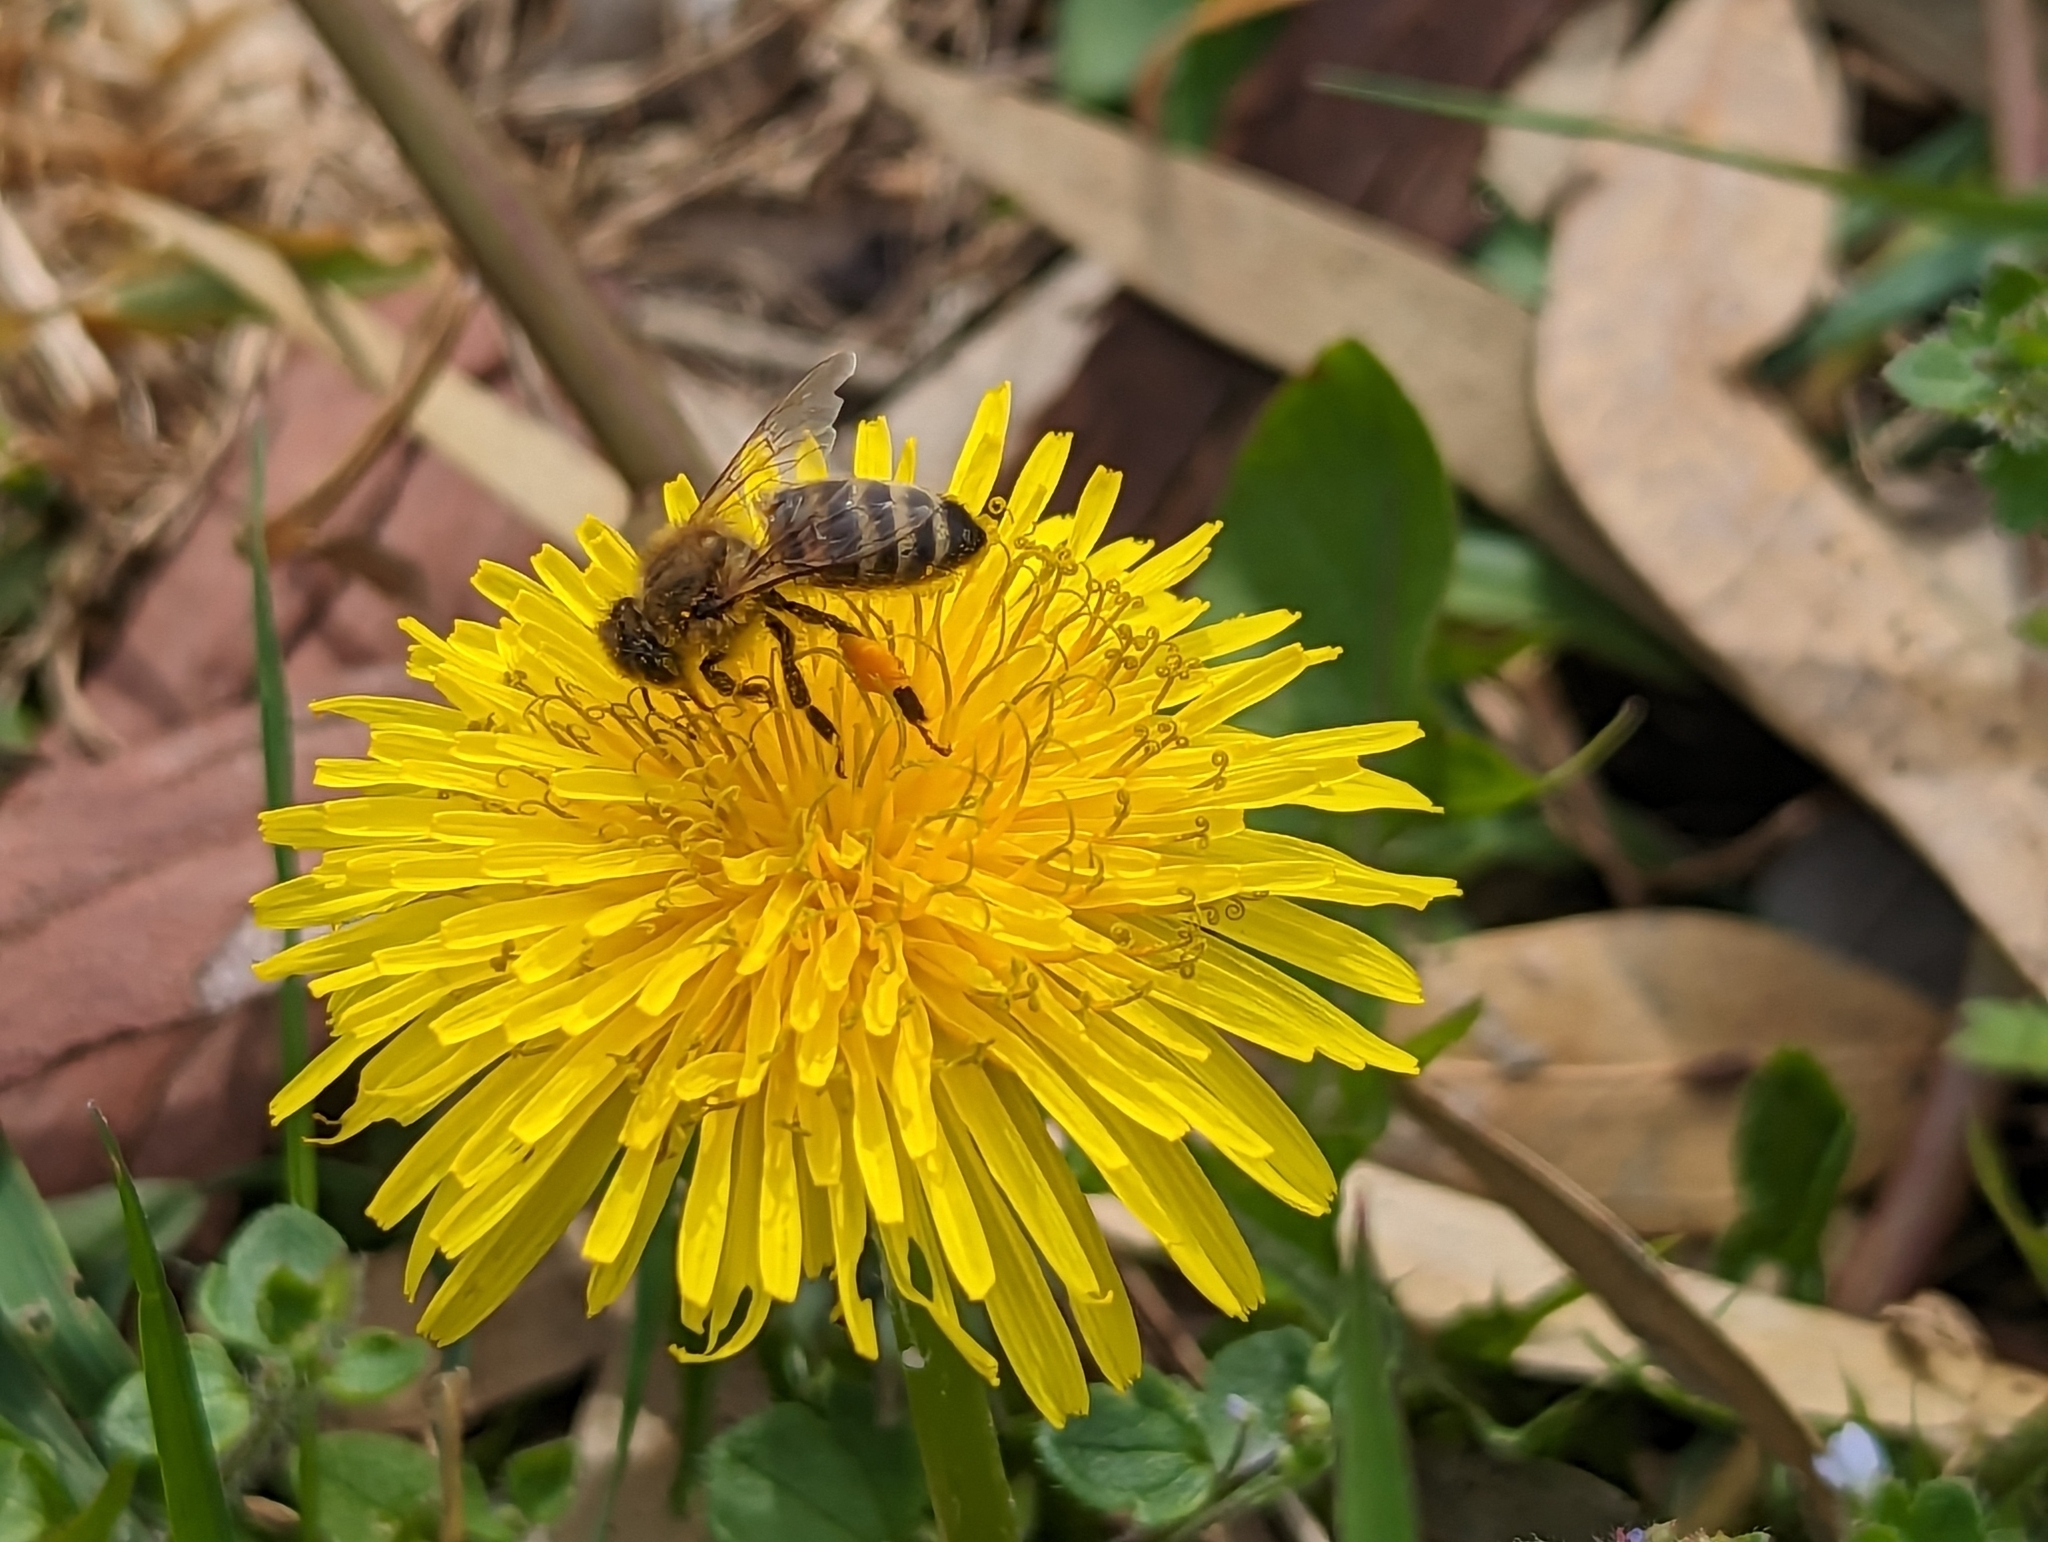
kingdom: Animalia
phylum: Arthropoda
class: Insecta
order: Hymenoptera
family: Apidae
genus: Apis
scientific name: Apis mellifera
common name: Honey bee
